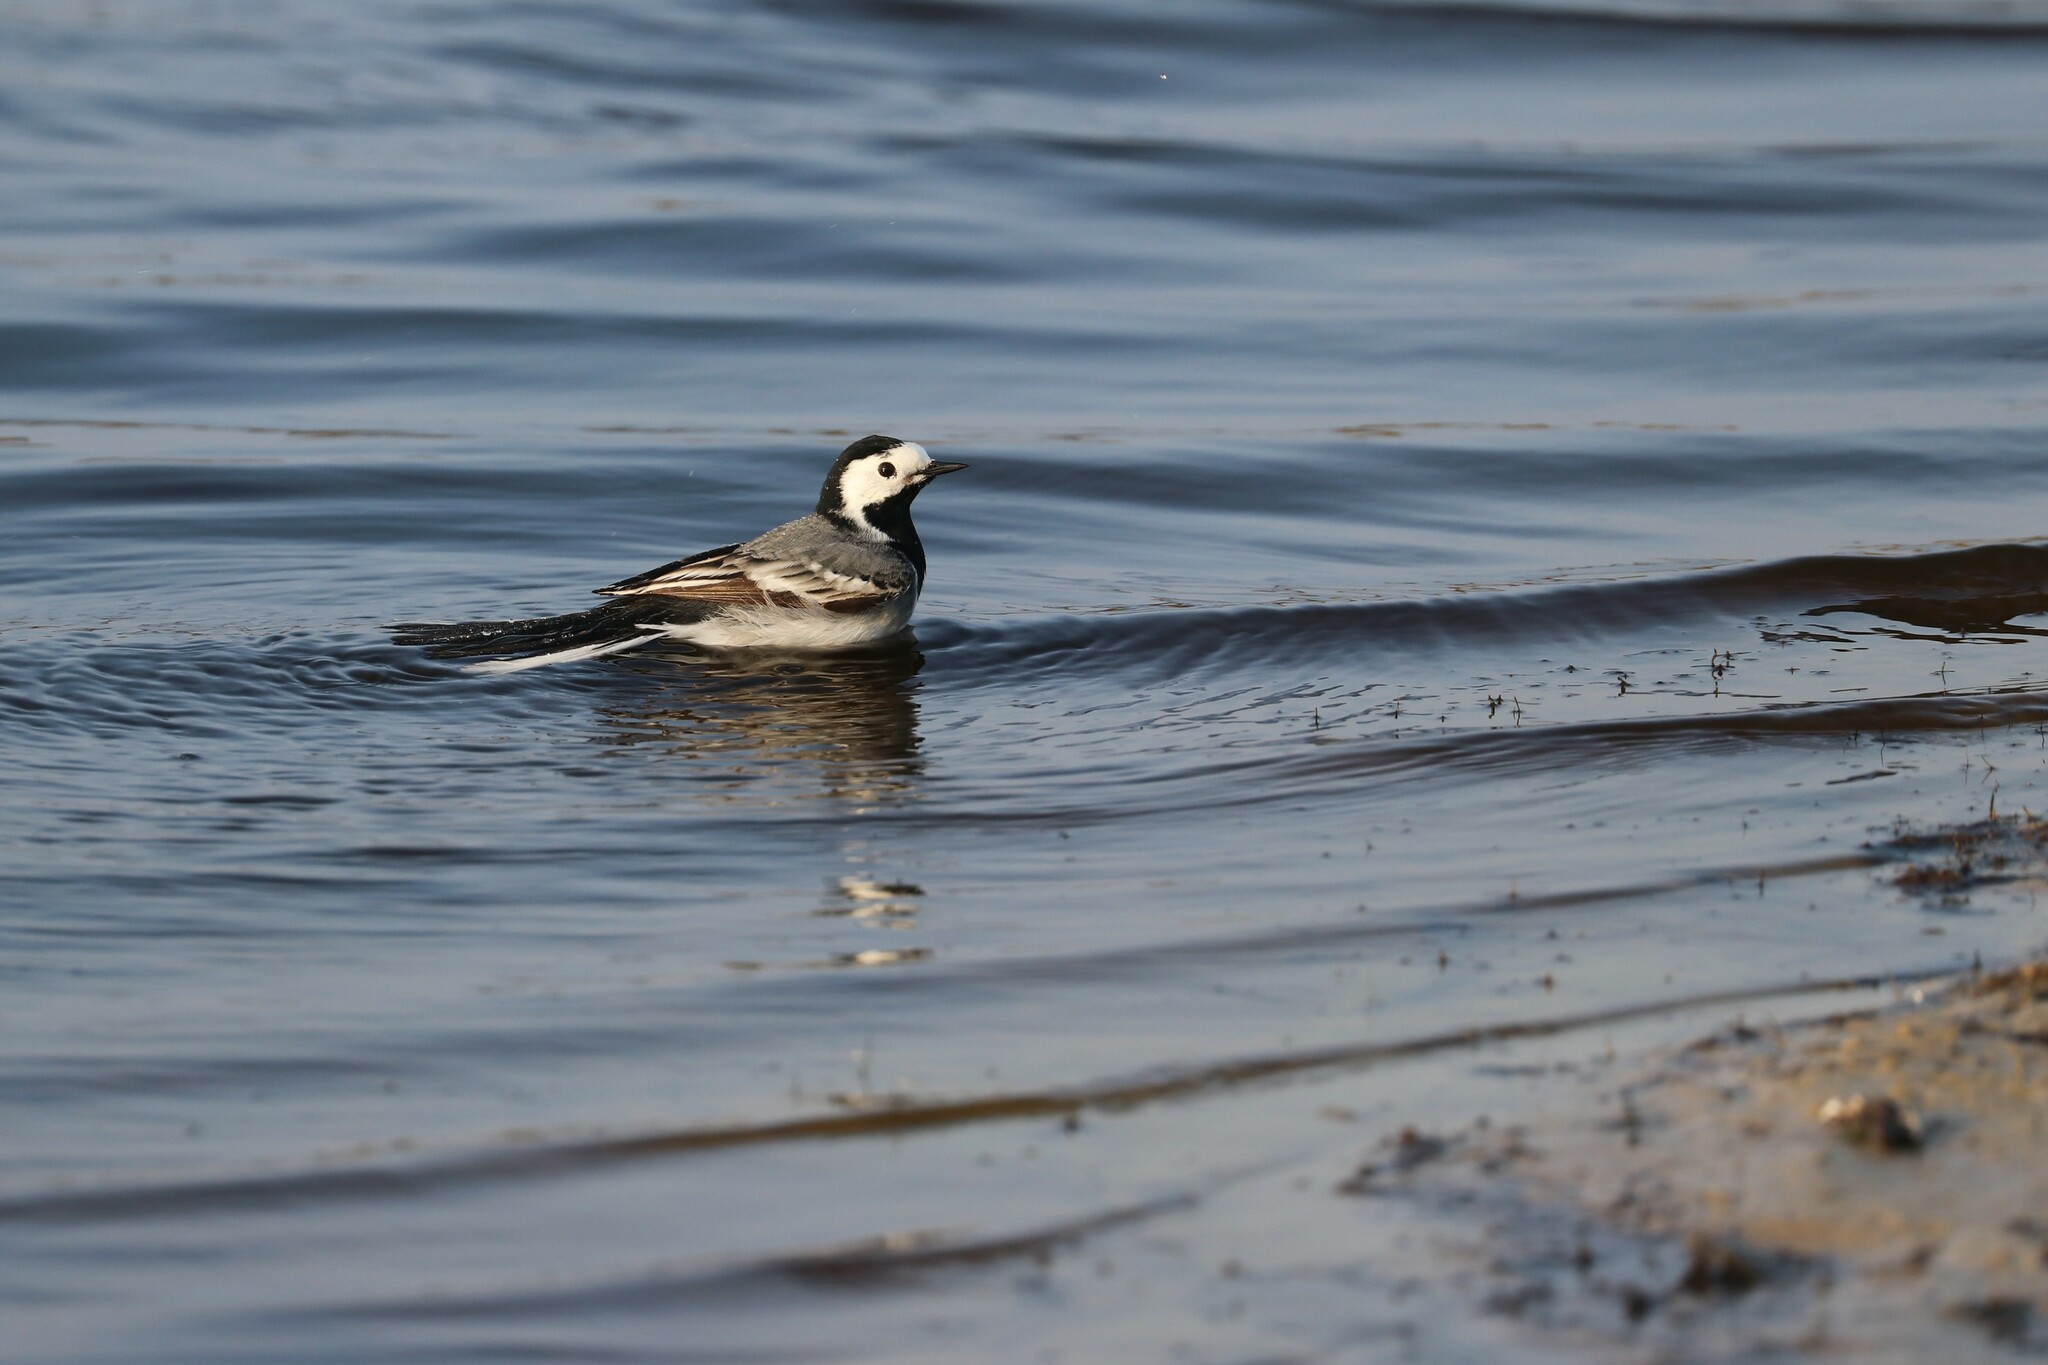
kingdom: Animalia
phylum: Chordata
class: Aves
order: Passeriformes
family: Motacillidae
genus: Motacilla
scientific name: Motacilla alba
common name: White wagtail
